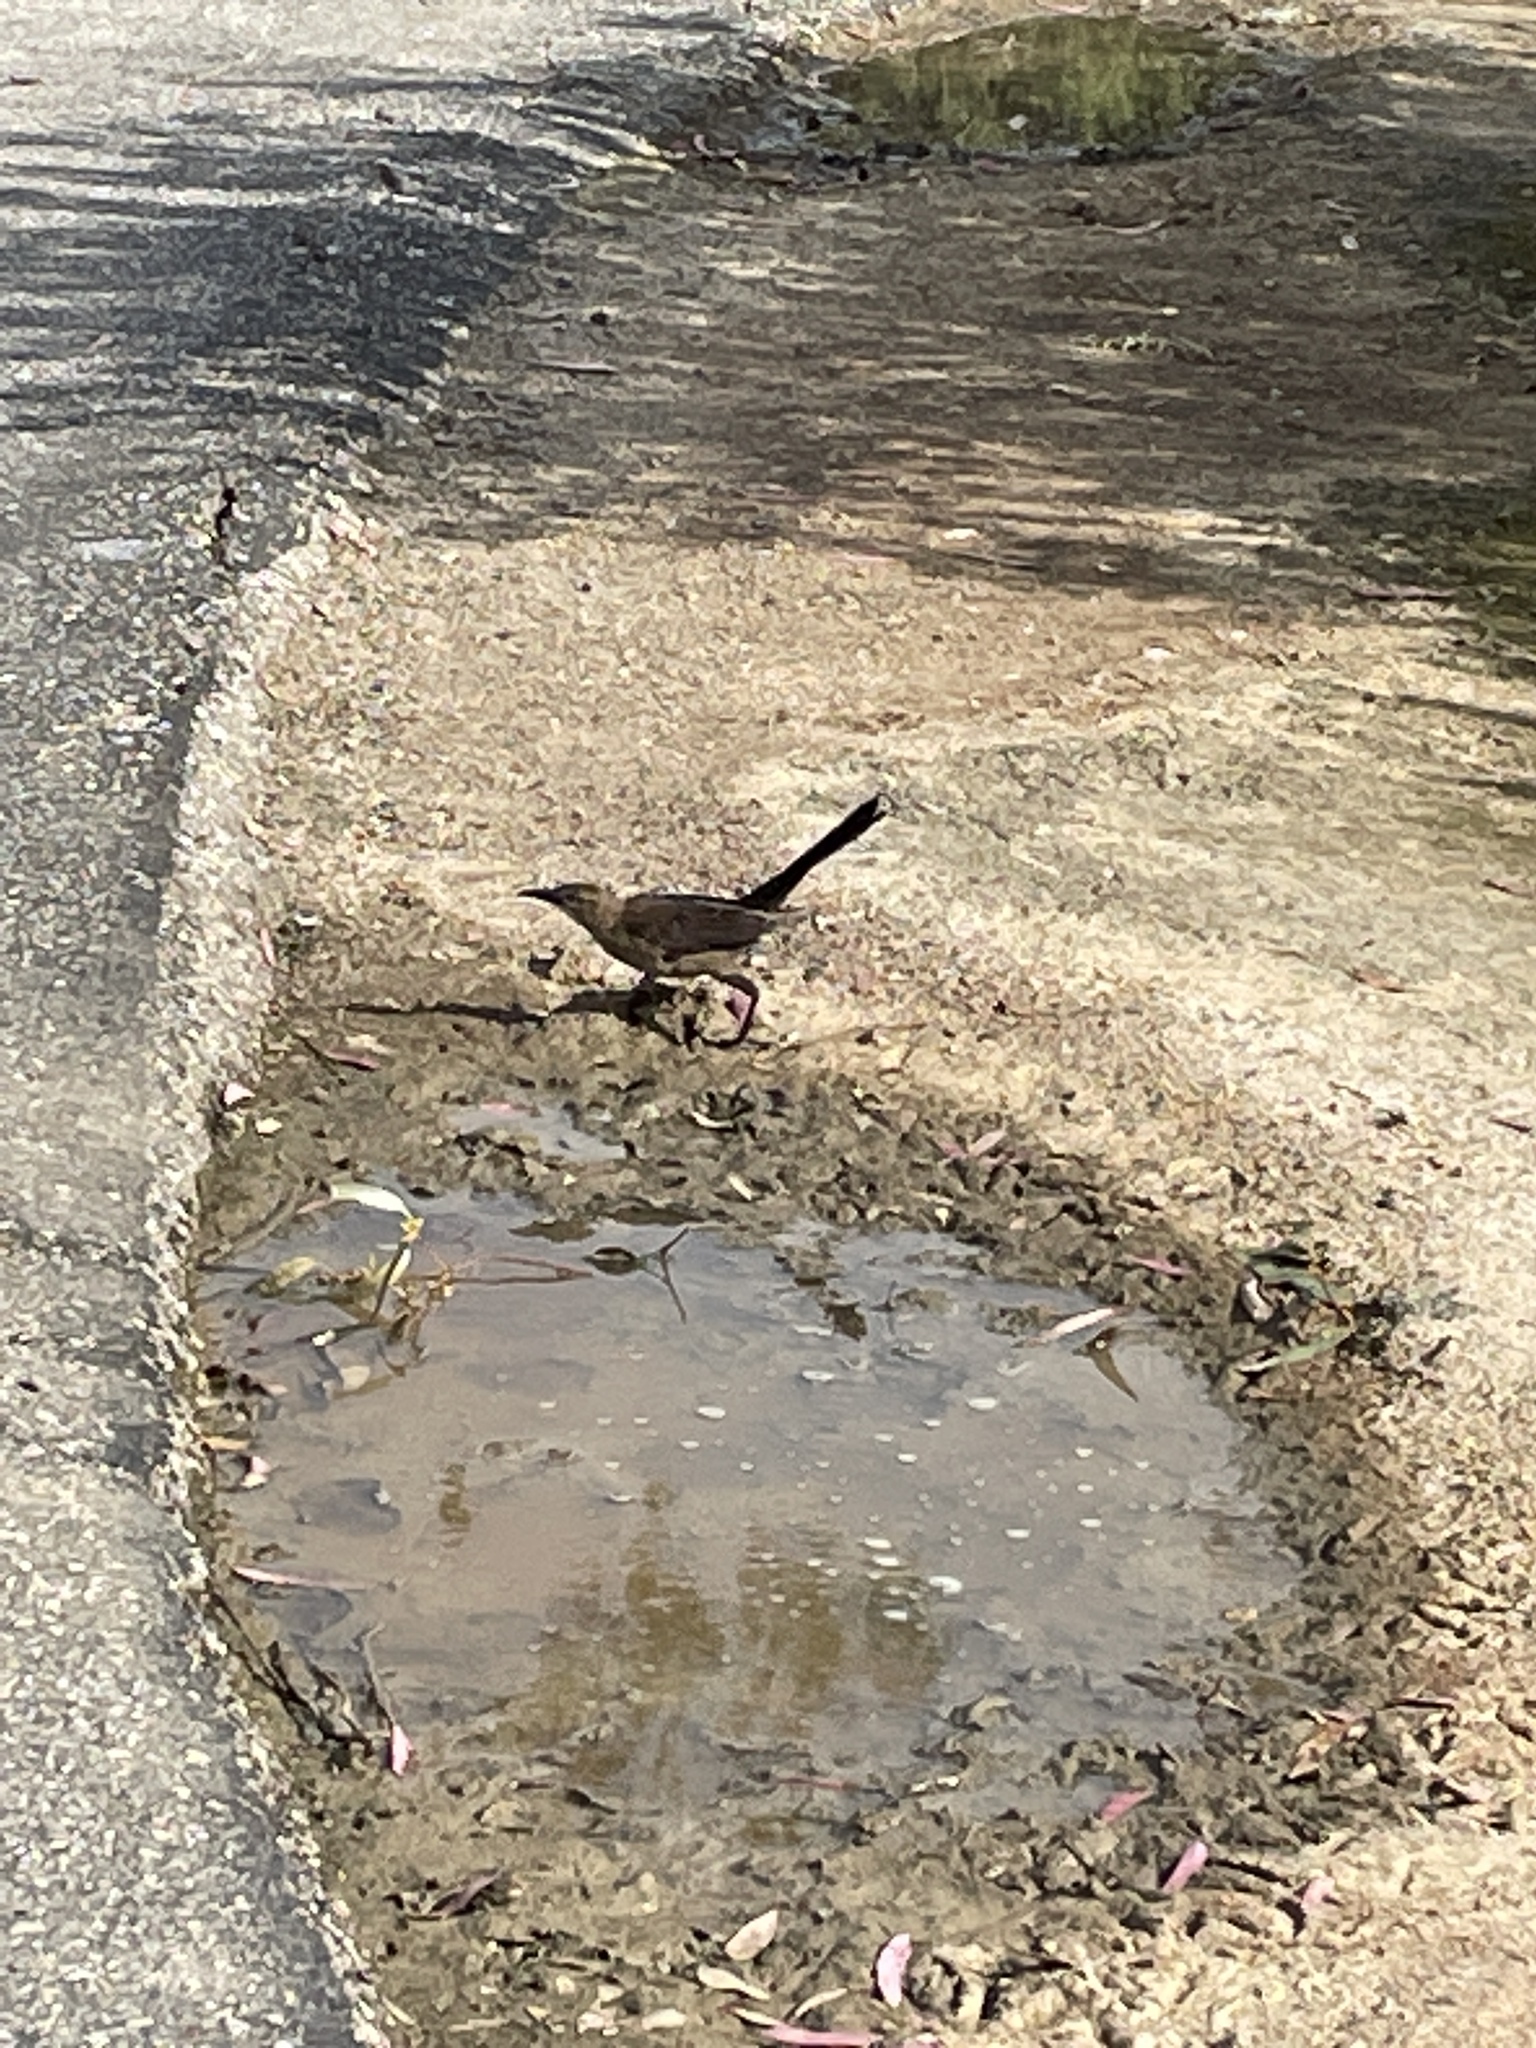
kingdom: Animalia
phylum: Chordata
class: Aves
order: Passeriformes
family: Icteridae
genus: Quiscalus
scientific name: Quiscalus mexicanus
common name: Great-tailed grackle
